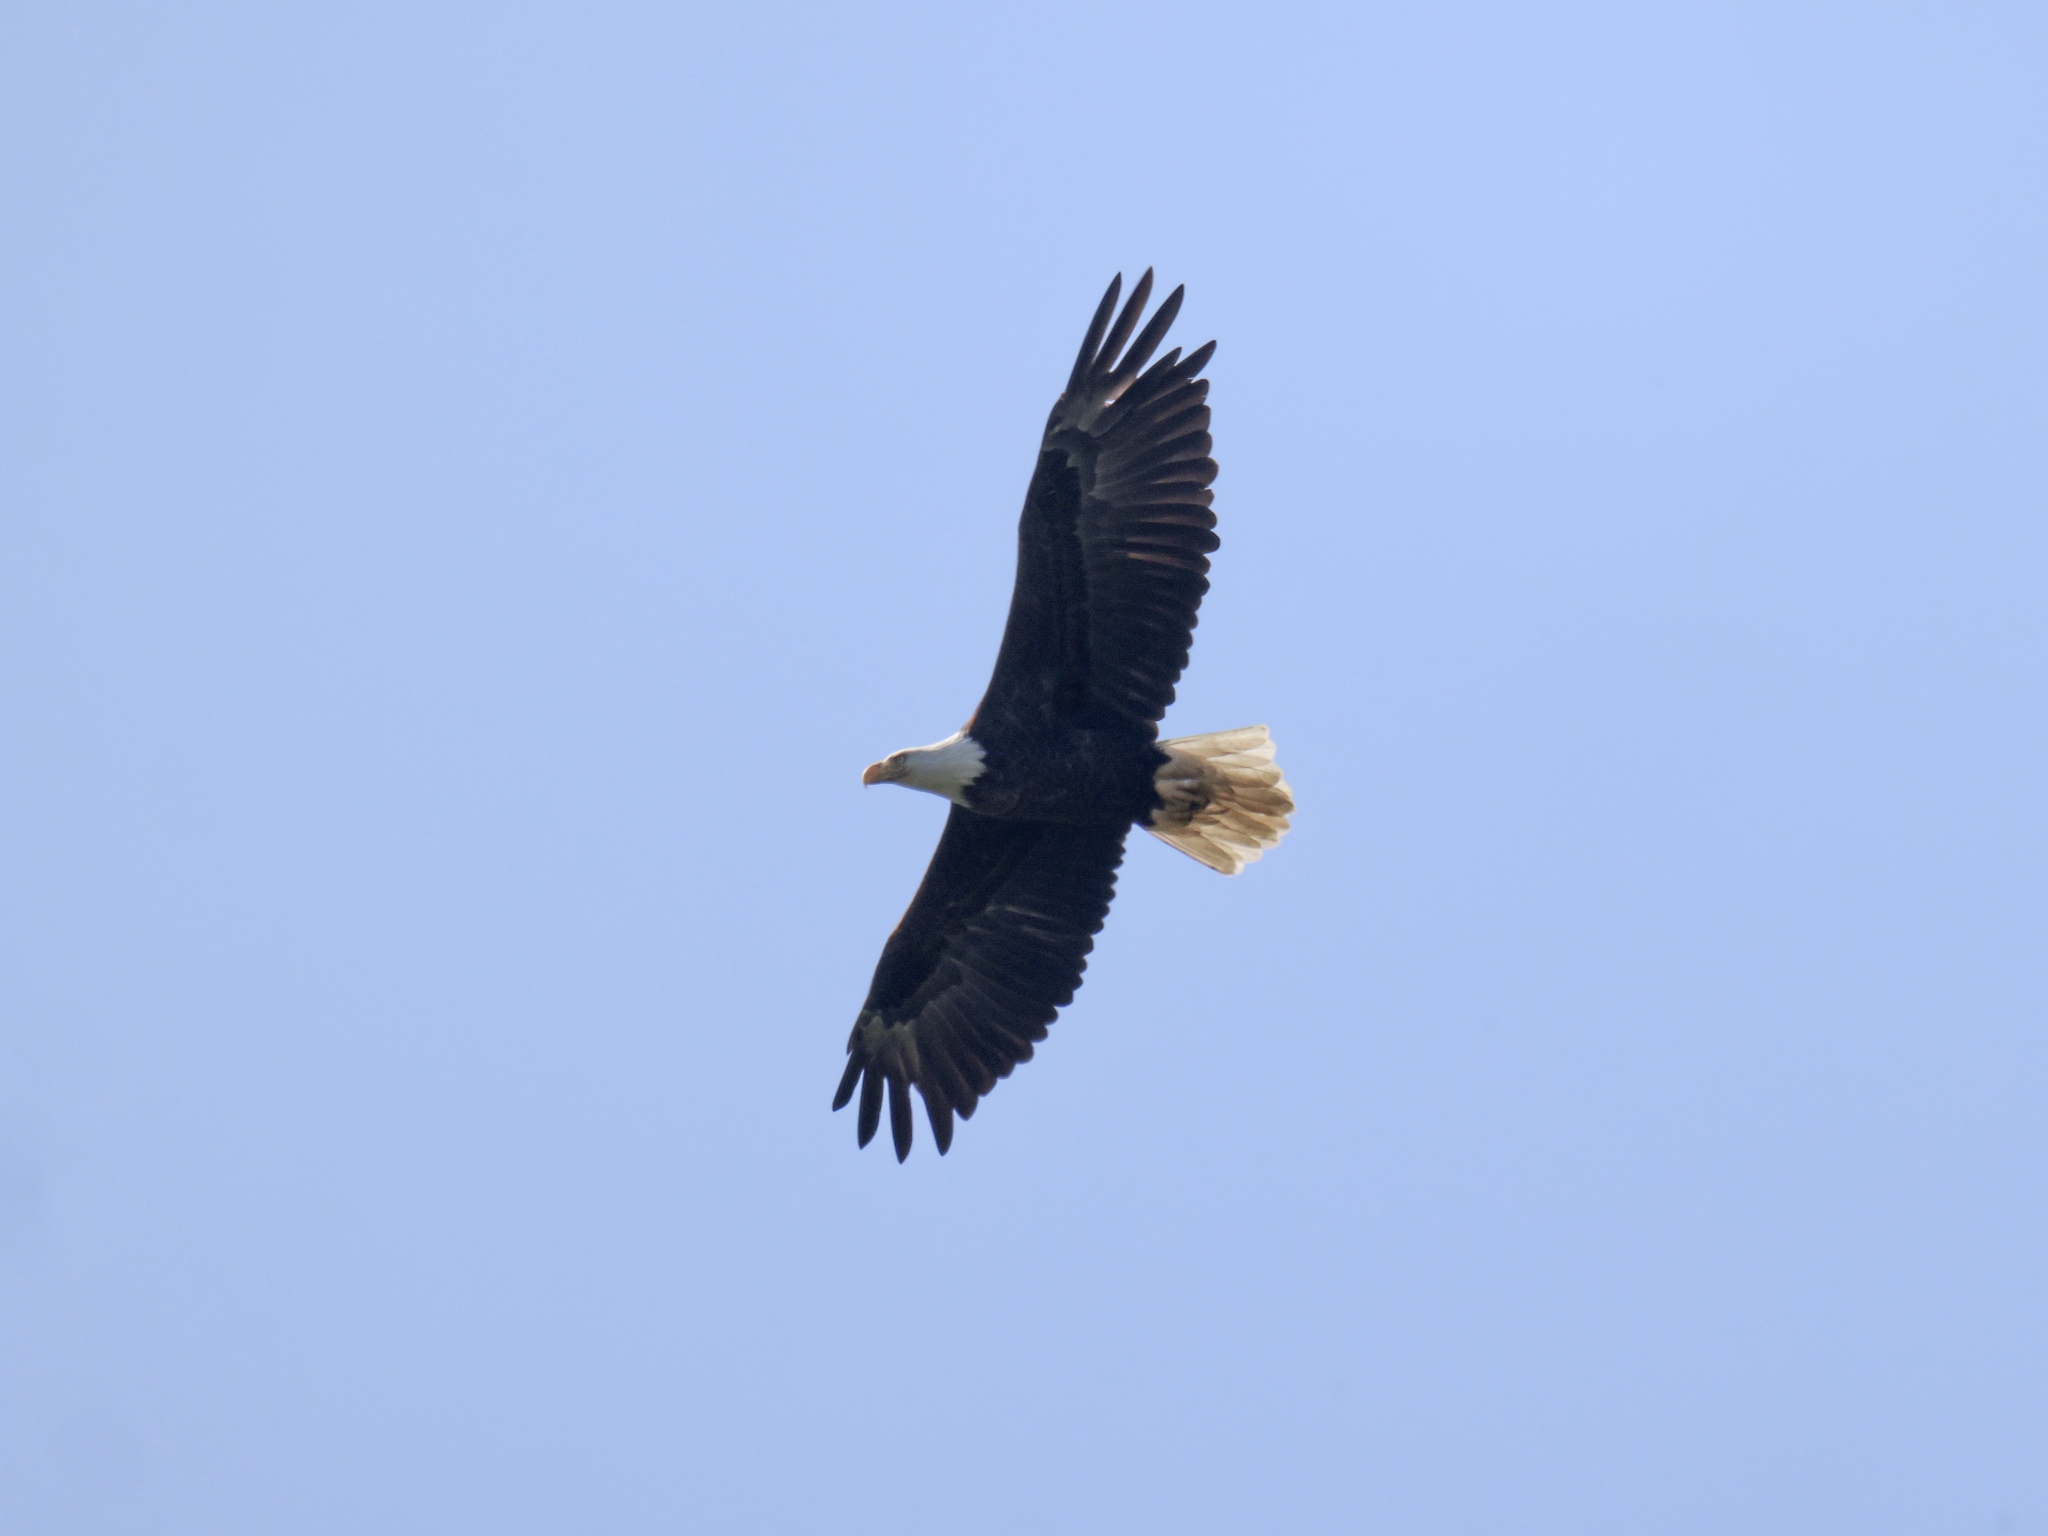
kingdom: Animalia
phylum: Chordata
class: Aves
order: Accipitriformes
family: Accipitridae
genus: Haliaeetus
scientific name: Haliaeetus leucocephalus
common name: Bald eagle
